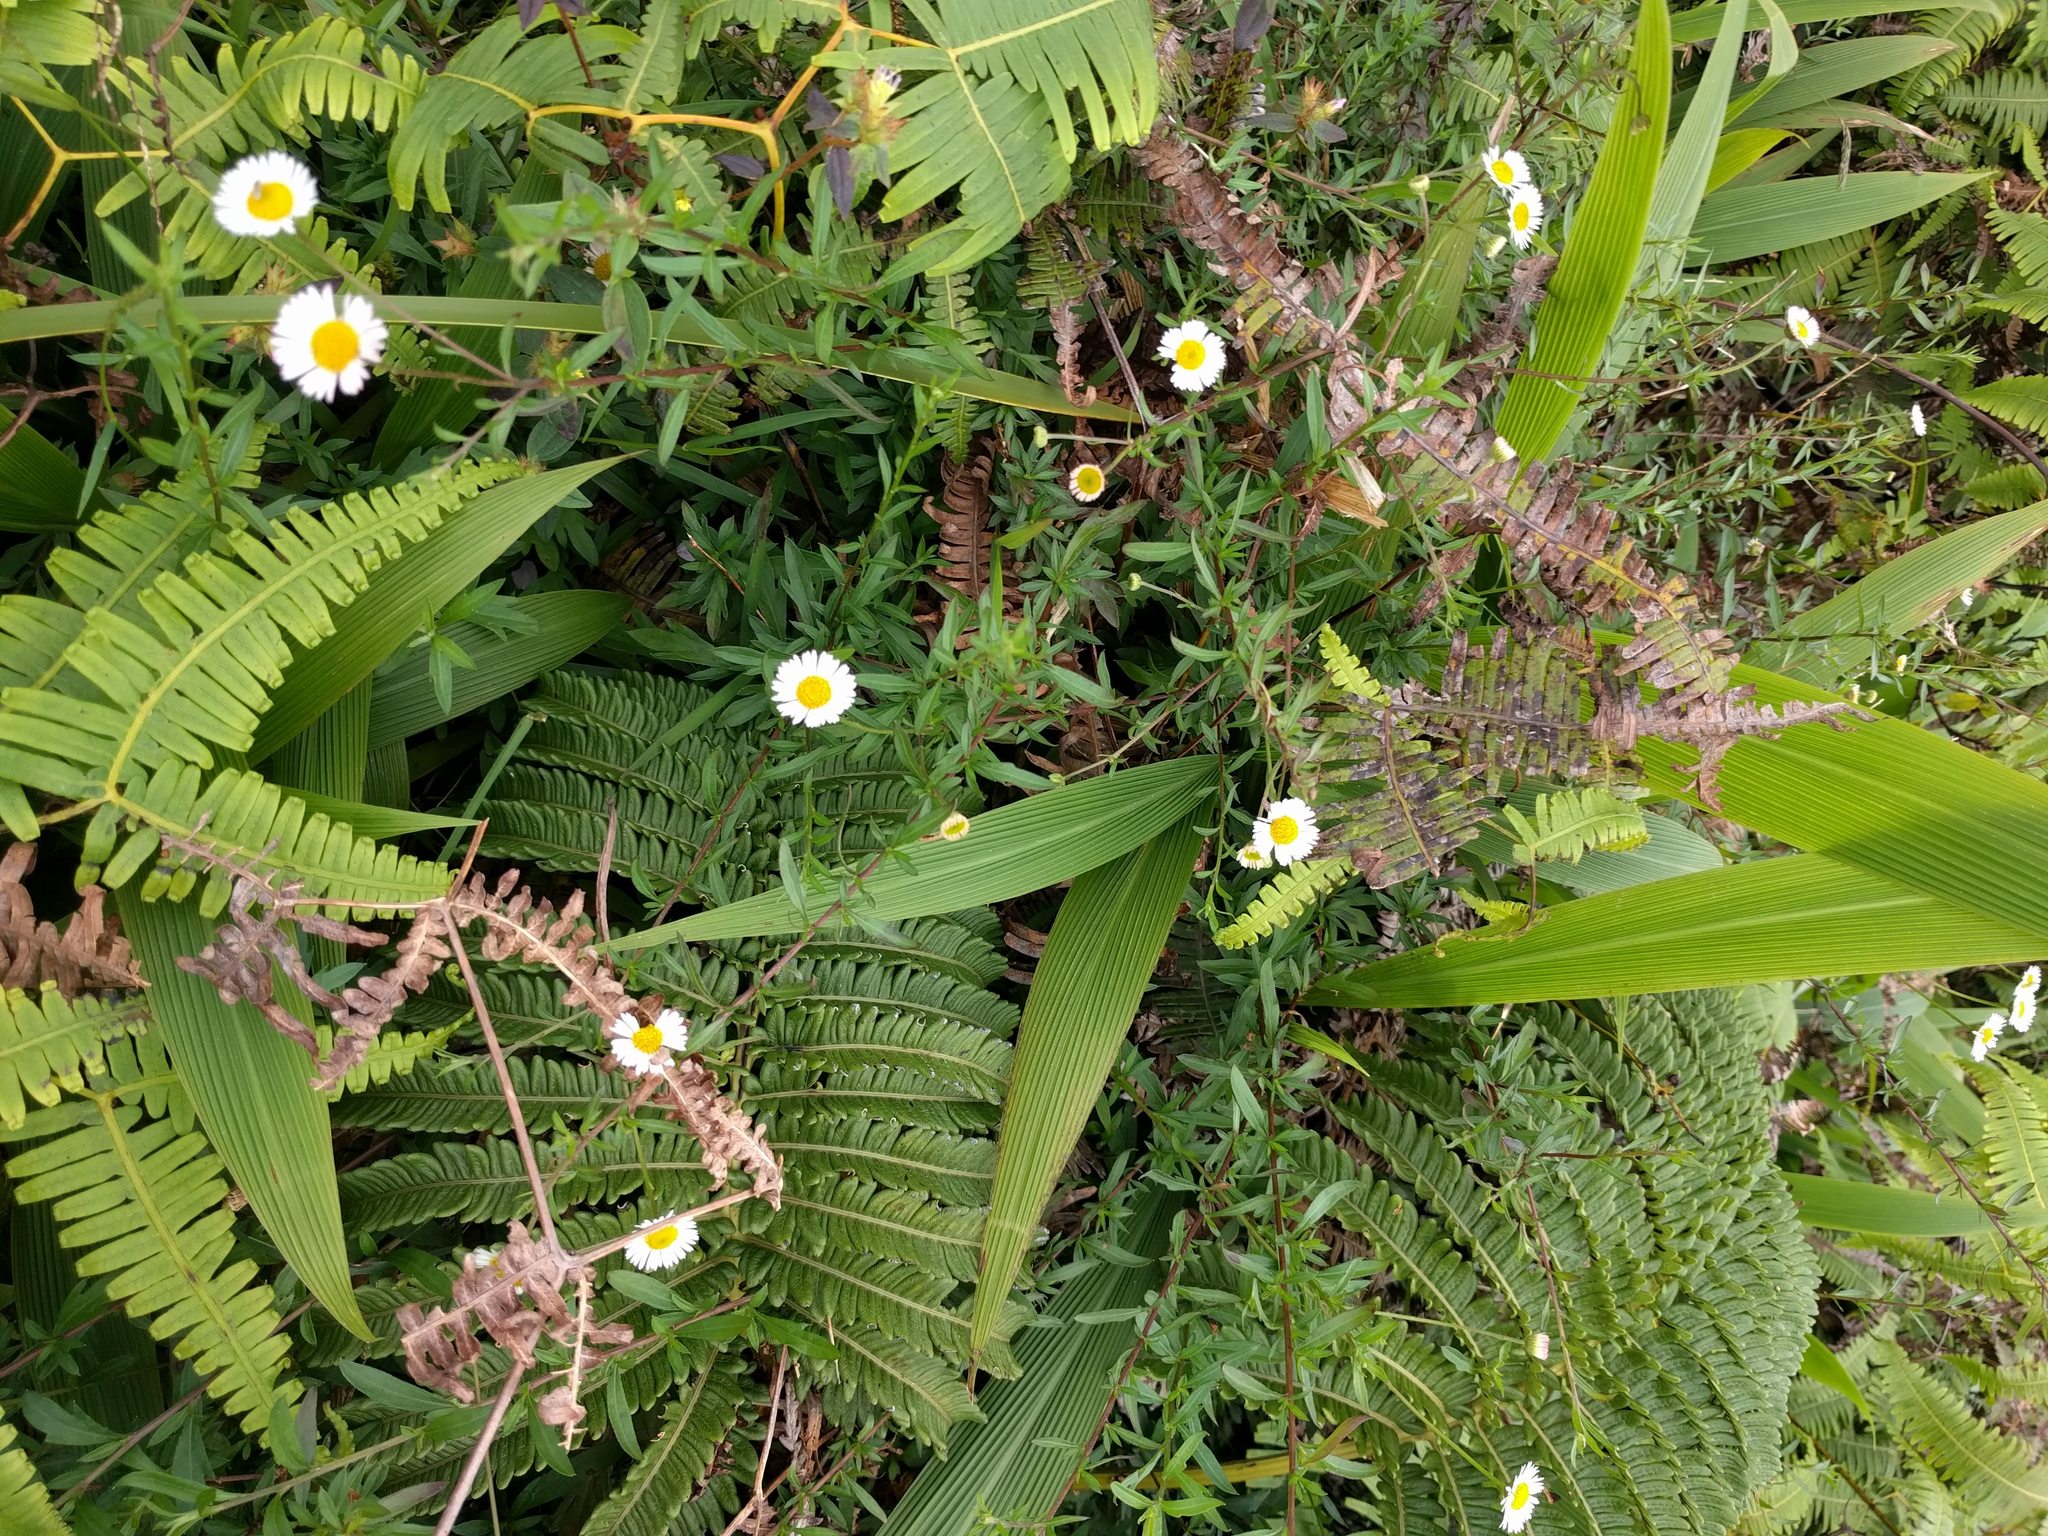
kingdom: Plantae
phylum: Tracheophyta
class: Magnoliopsida
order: Asterales
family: Asteraceae
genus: Erigeron
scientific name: Erigeron karvinskianus
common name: Mexican fleabane
